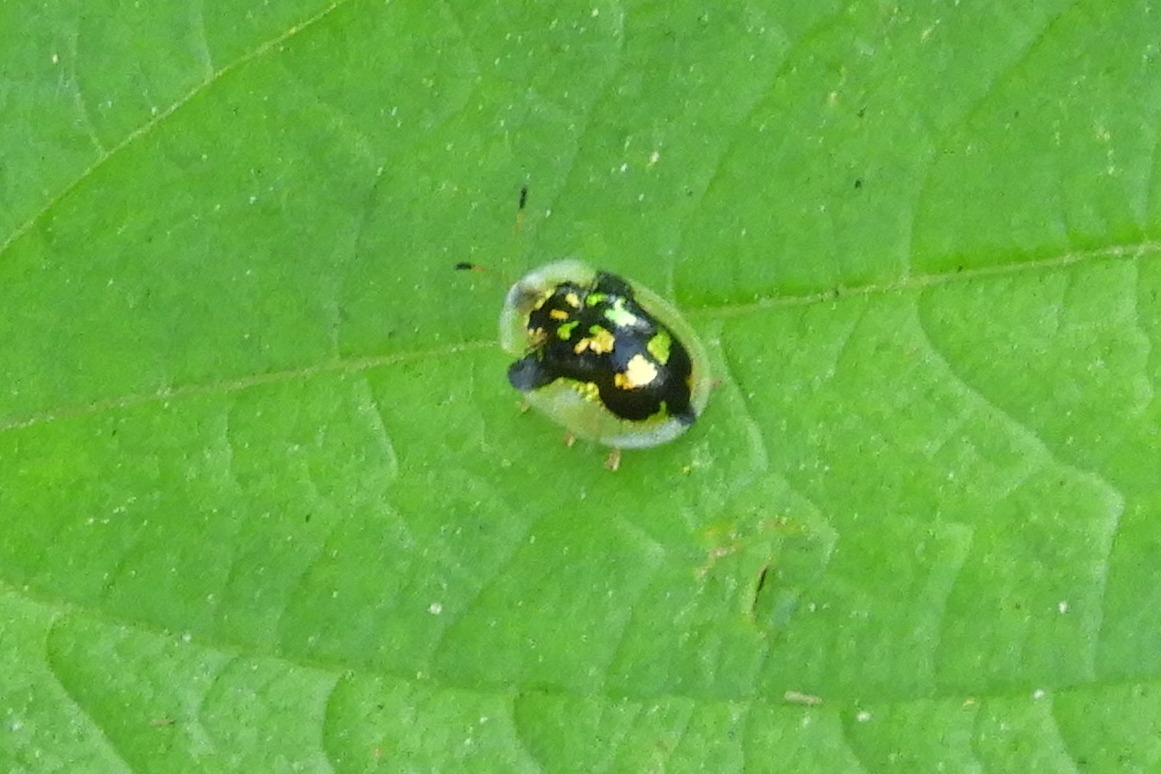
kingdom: Animalia
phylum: Arthropoda
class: Insecta
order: Coleoptera
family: Chrysomelidae
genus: Deloyala
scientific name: Deloyala guttata
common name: Mottled tortoise beetle
